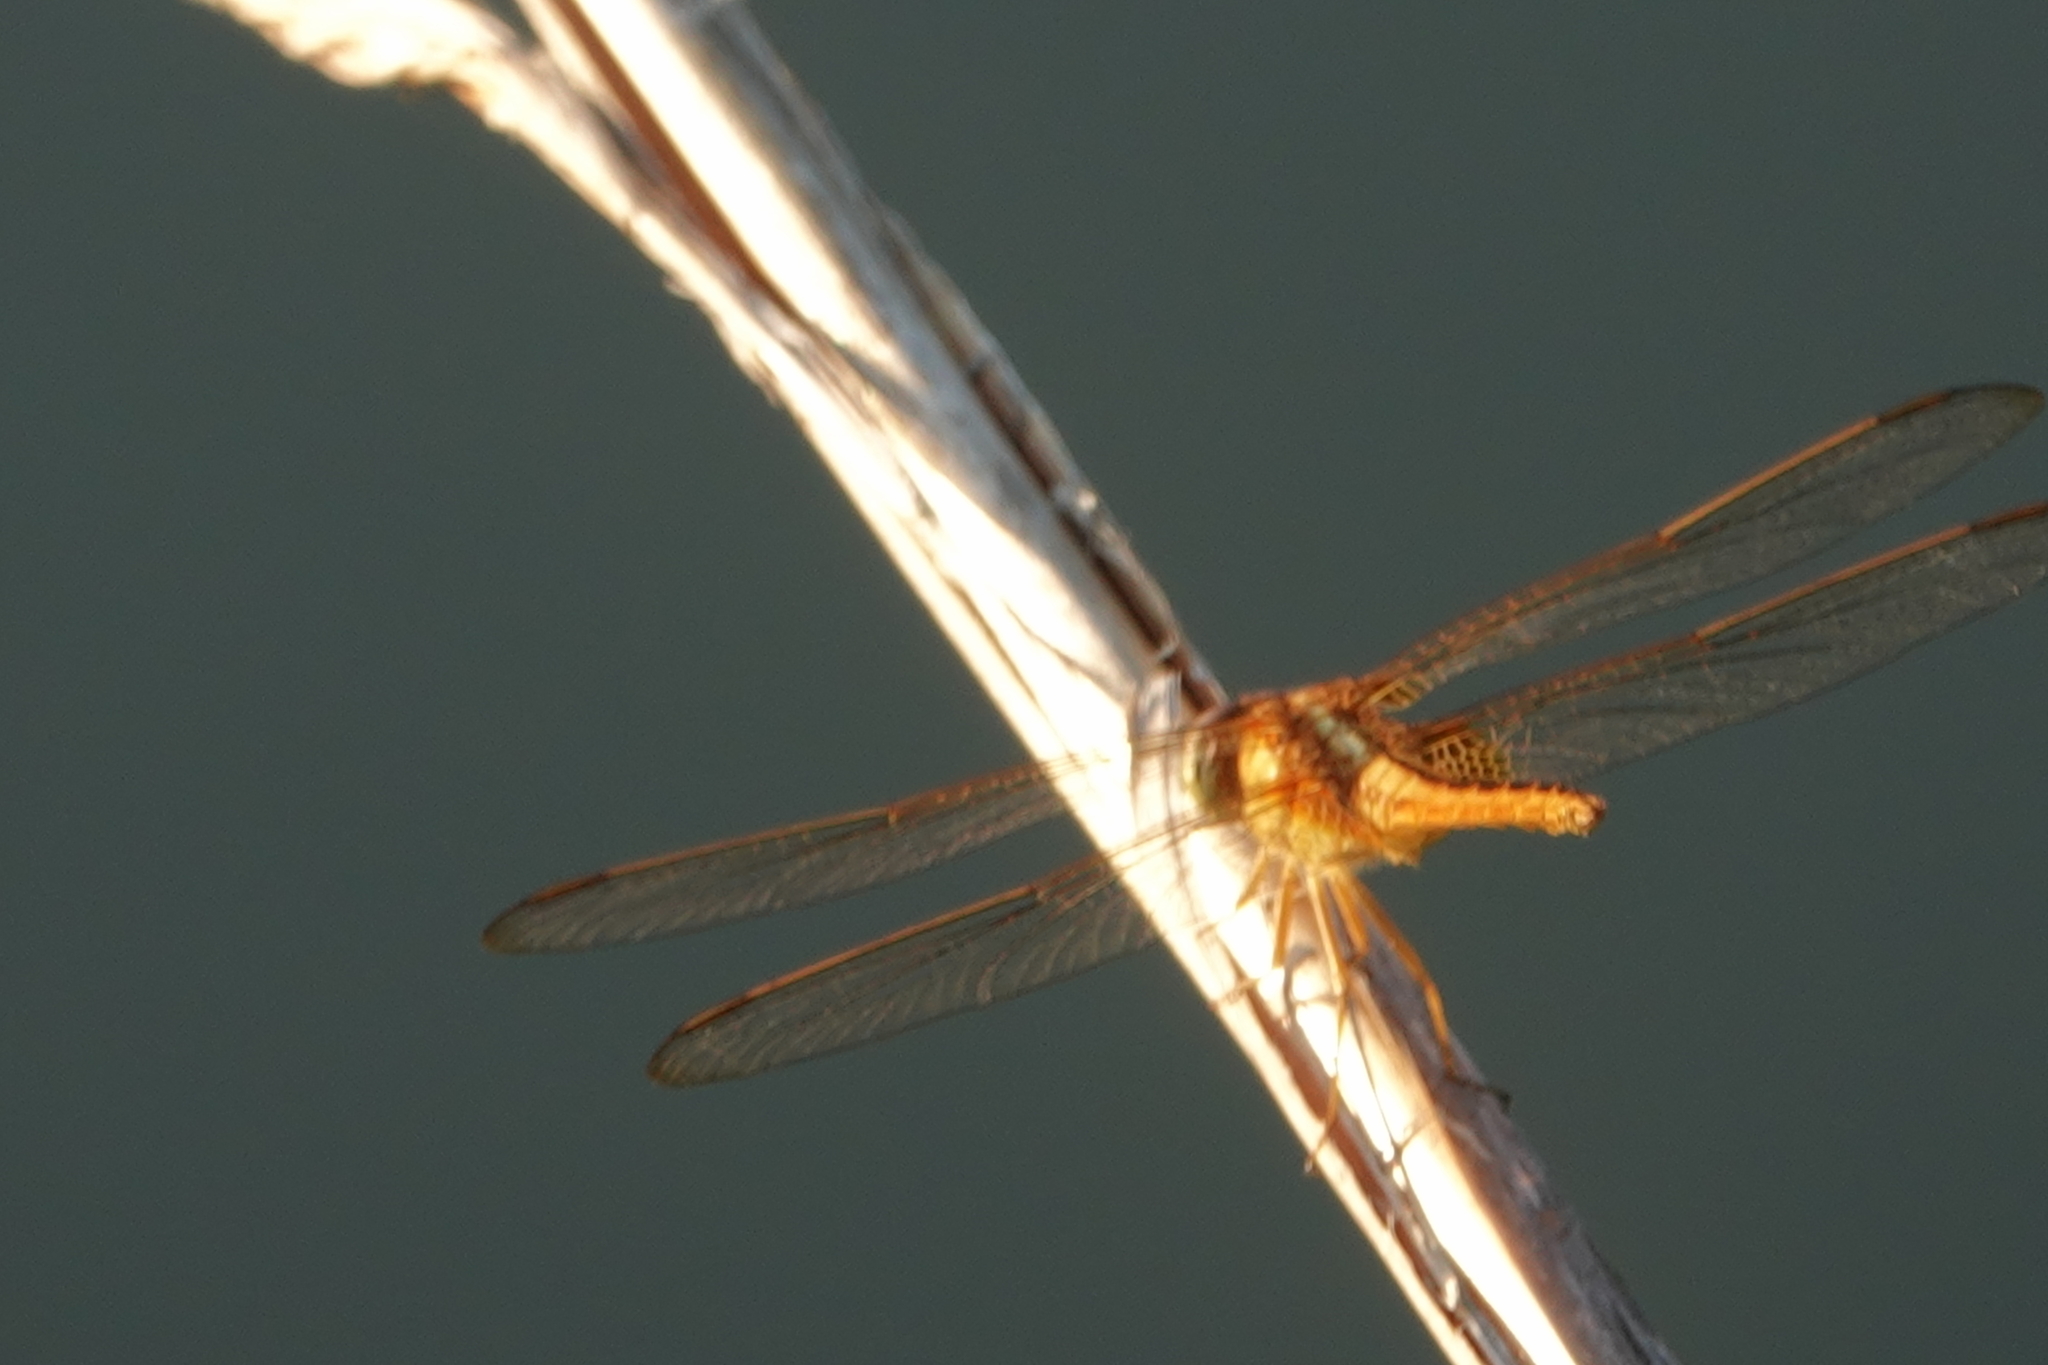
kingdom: Animalia
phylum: Arthropoda
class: Insecta
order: Odonata
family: Libellulidae
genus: Crocothemis
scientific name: Crocothemis servilia
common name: Scarlet skimmer
